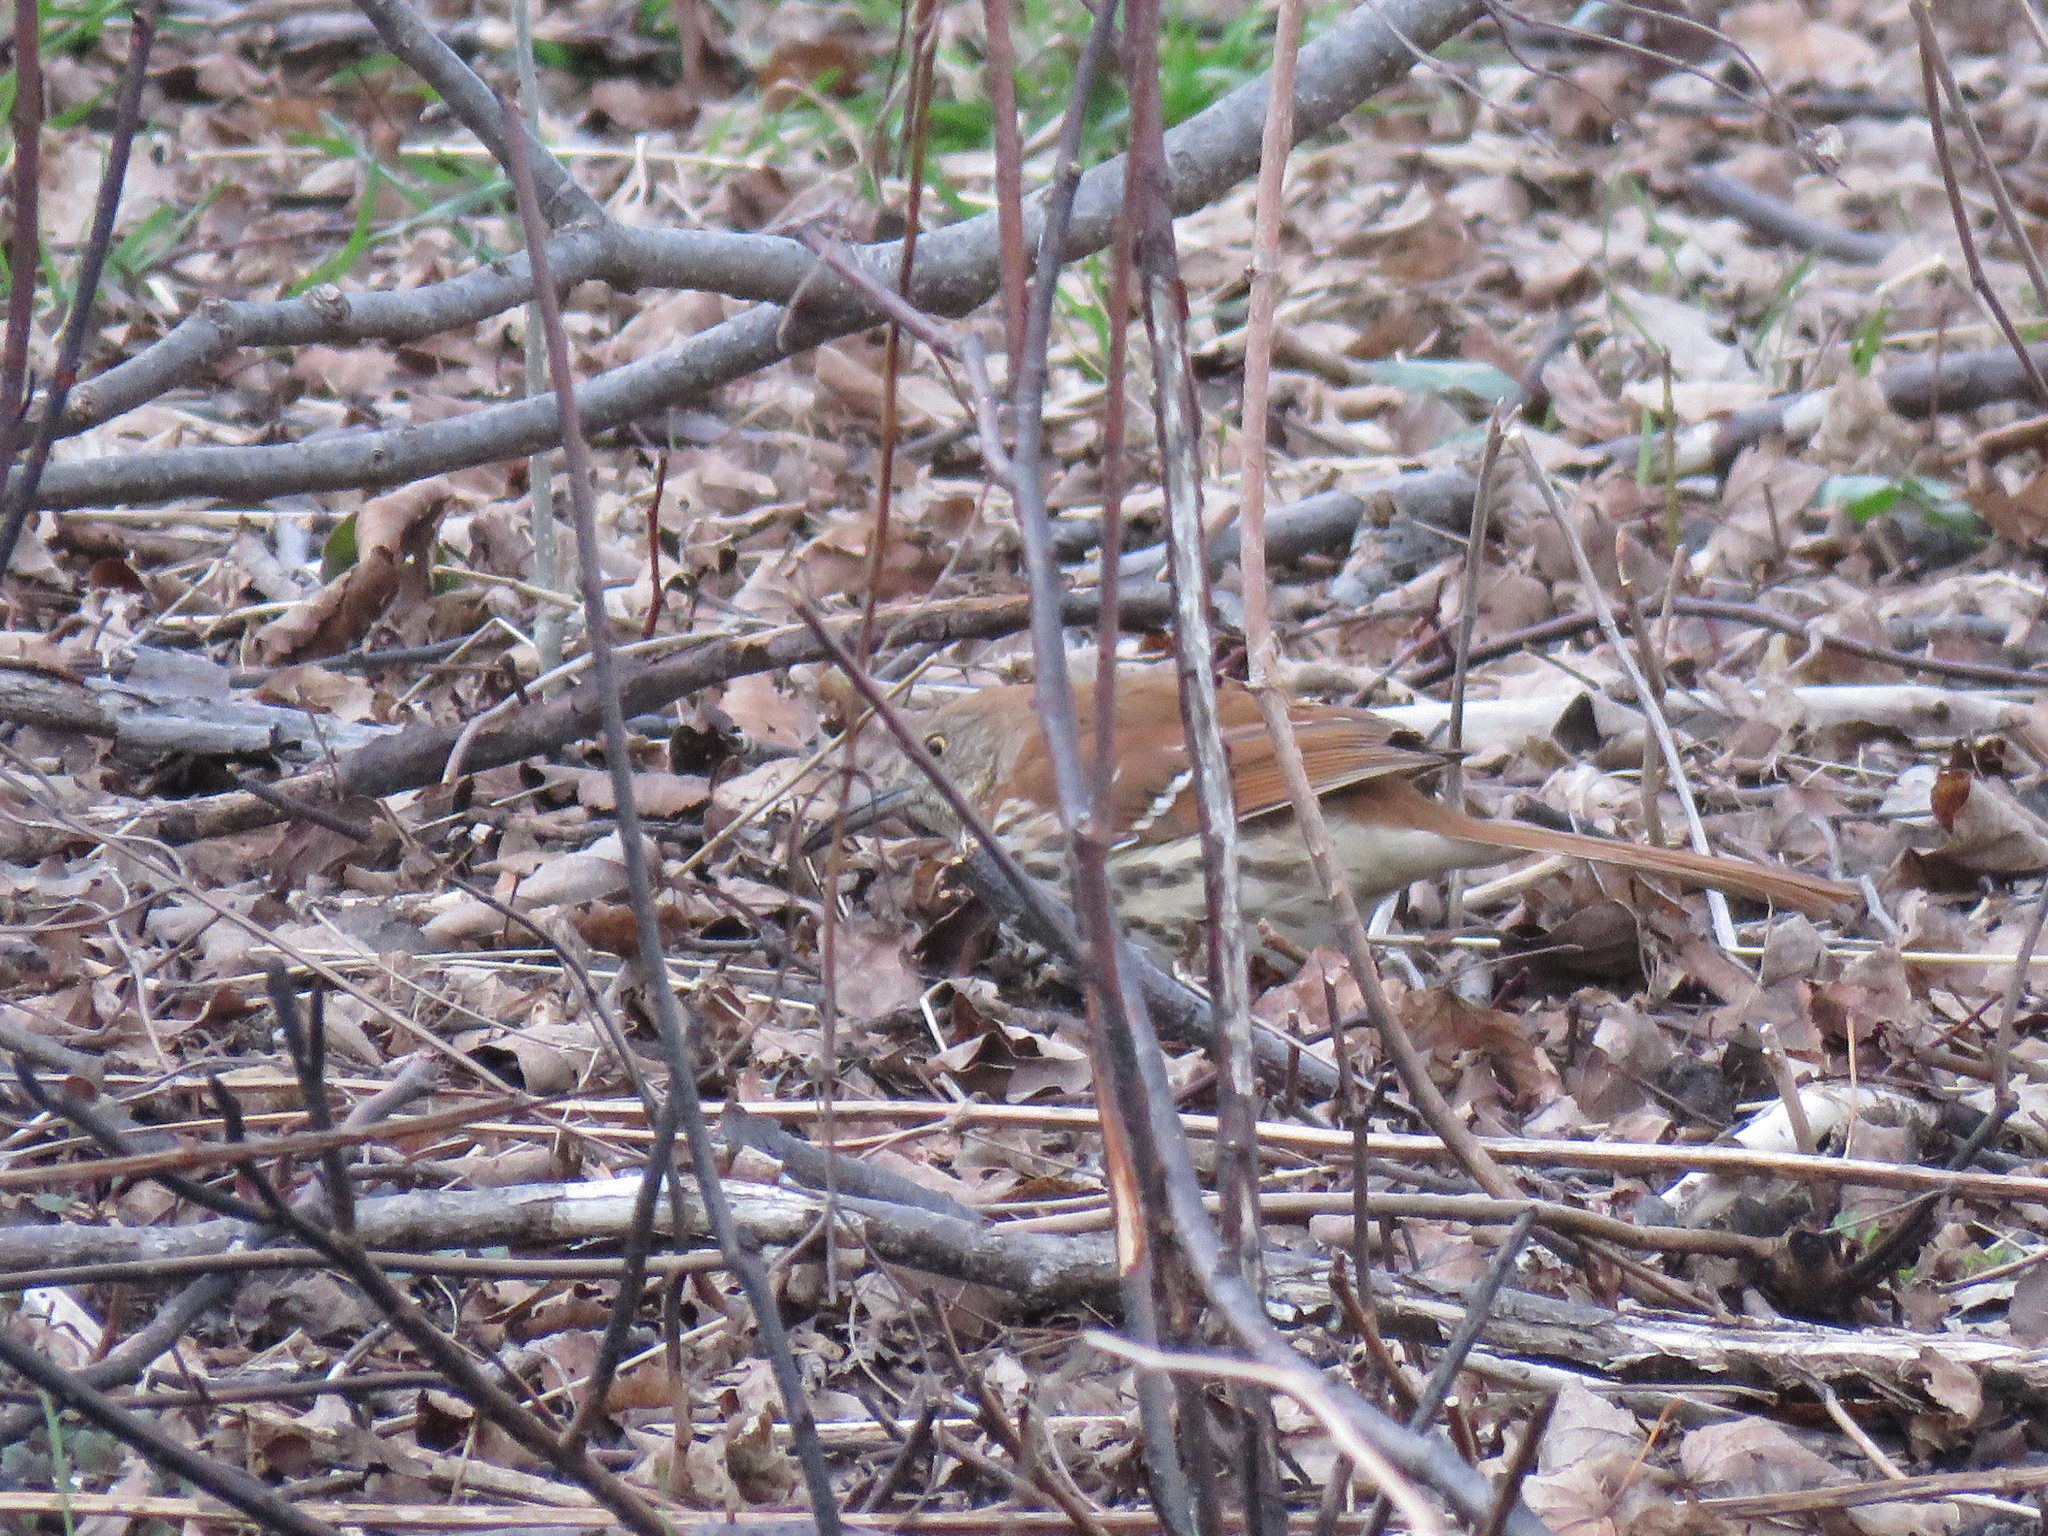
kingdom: Animalia
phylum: Chordata
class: Aves
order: Passeriformes
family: Mimidae
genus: Toxostoma
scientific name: Toxostoma rufum
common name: Brown thrasher
